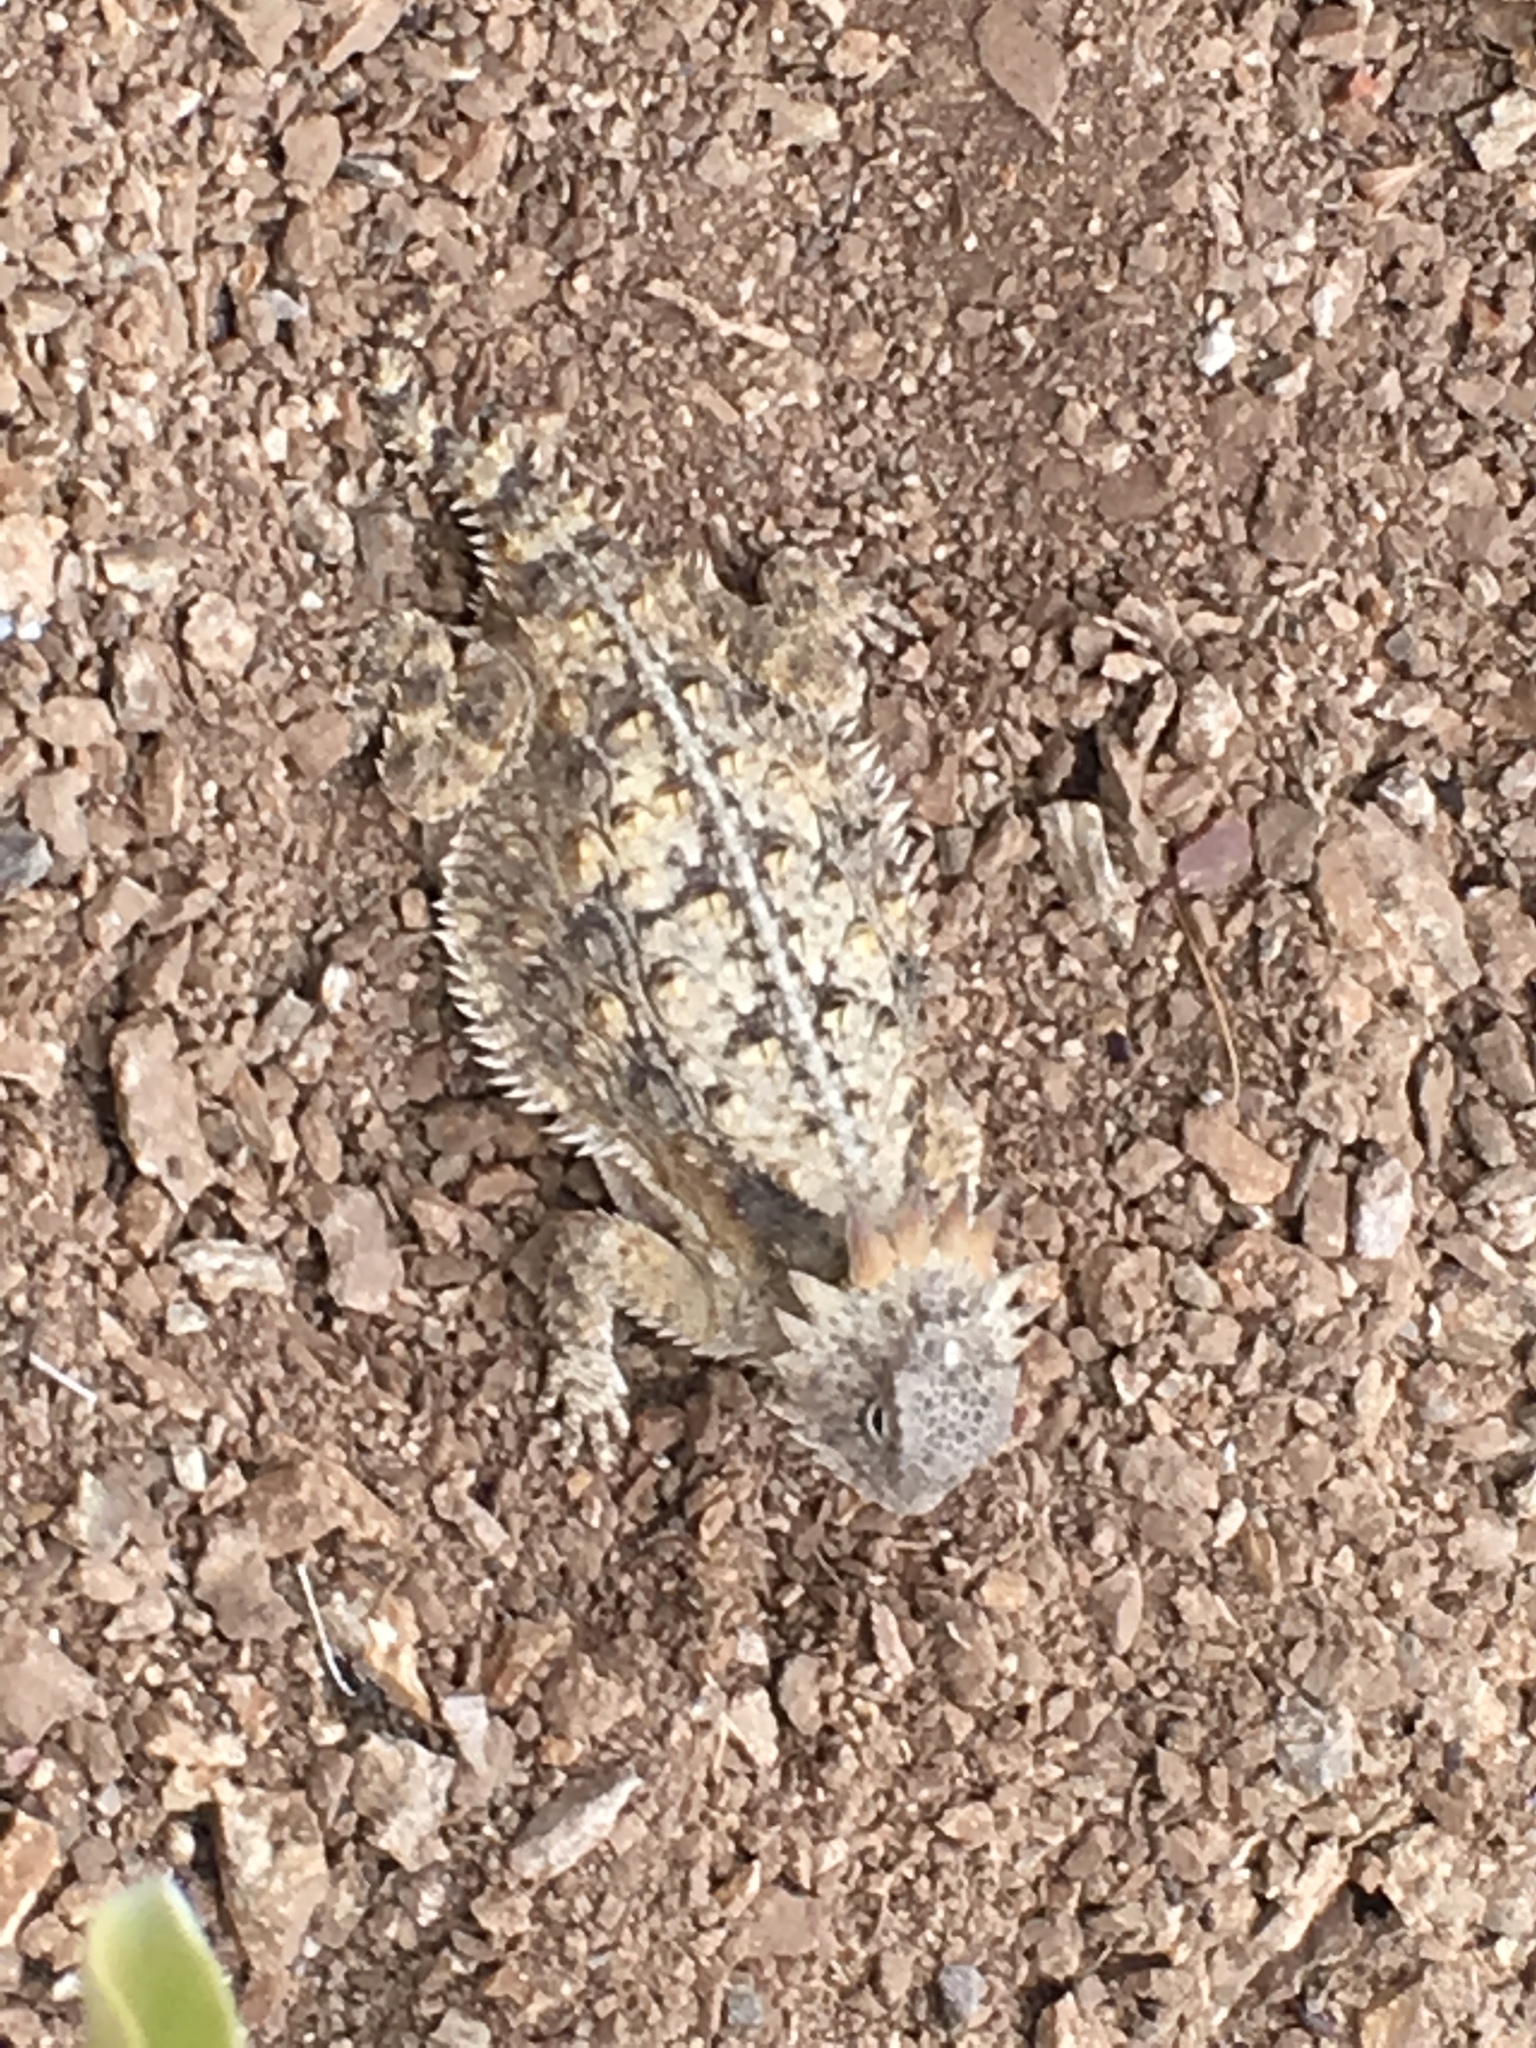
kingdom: Animalia
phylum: Chordata
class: Squamata
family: Phrynosomatidae
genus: Phrynosoma
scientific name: Phrynosoma solare
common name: Regal horned lizard
